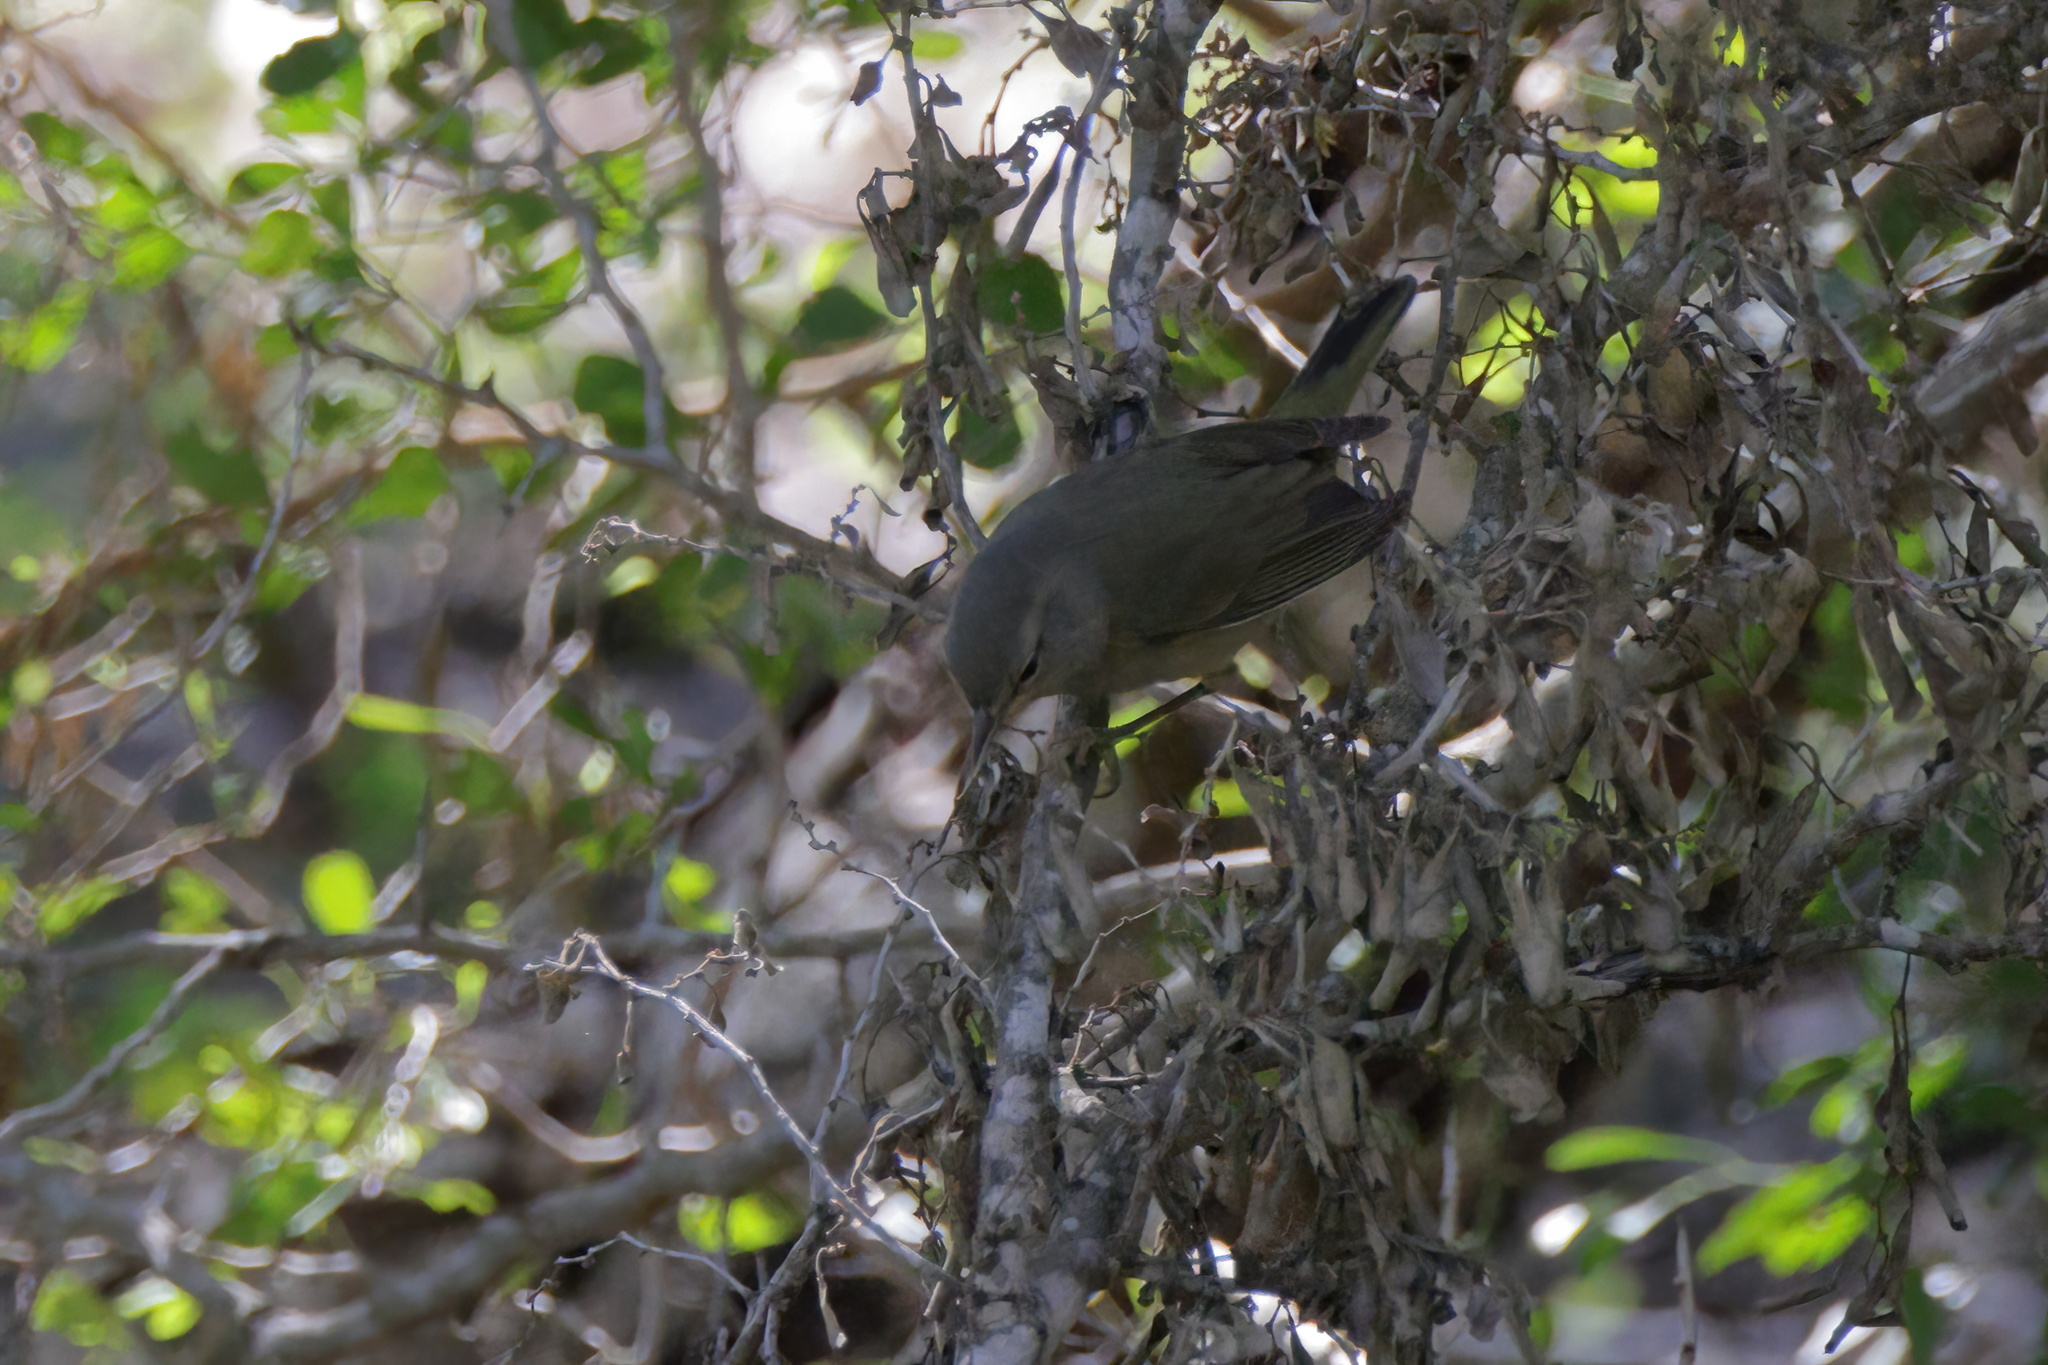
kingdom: Animalia
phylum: Chordata
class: Aves
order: Passeriformes
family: Parulidae
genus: Leiothlypis
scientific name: Leiothlypis celata
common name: Orange-crowned warbler
